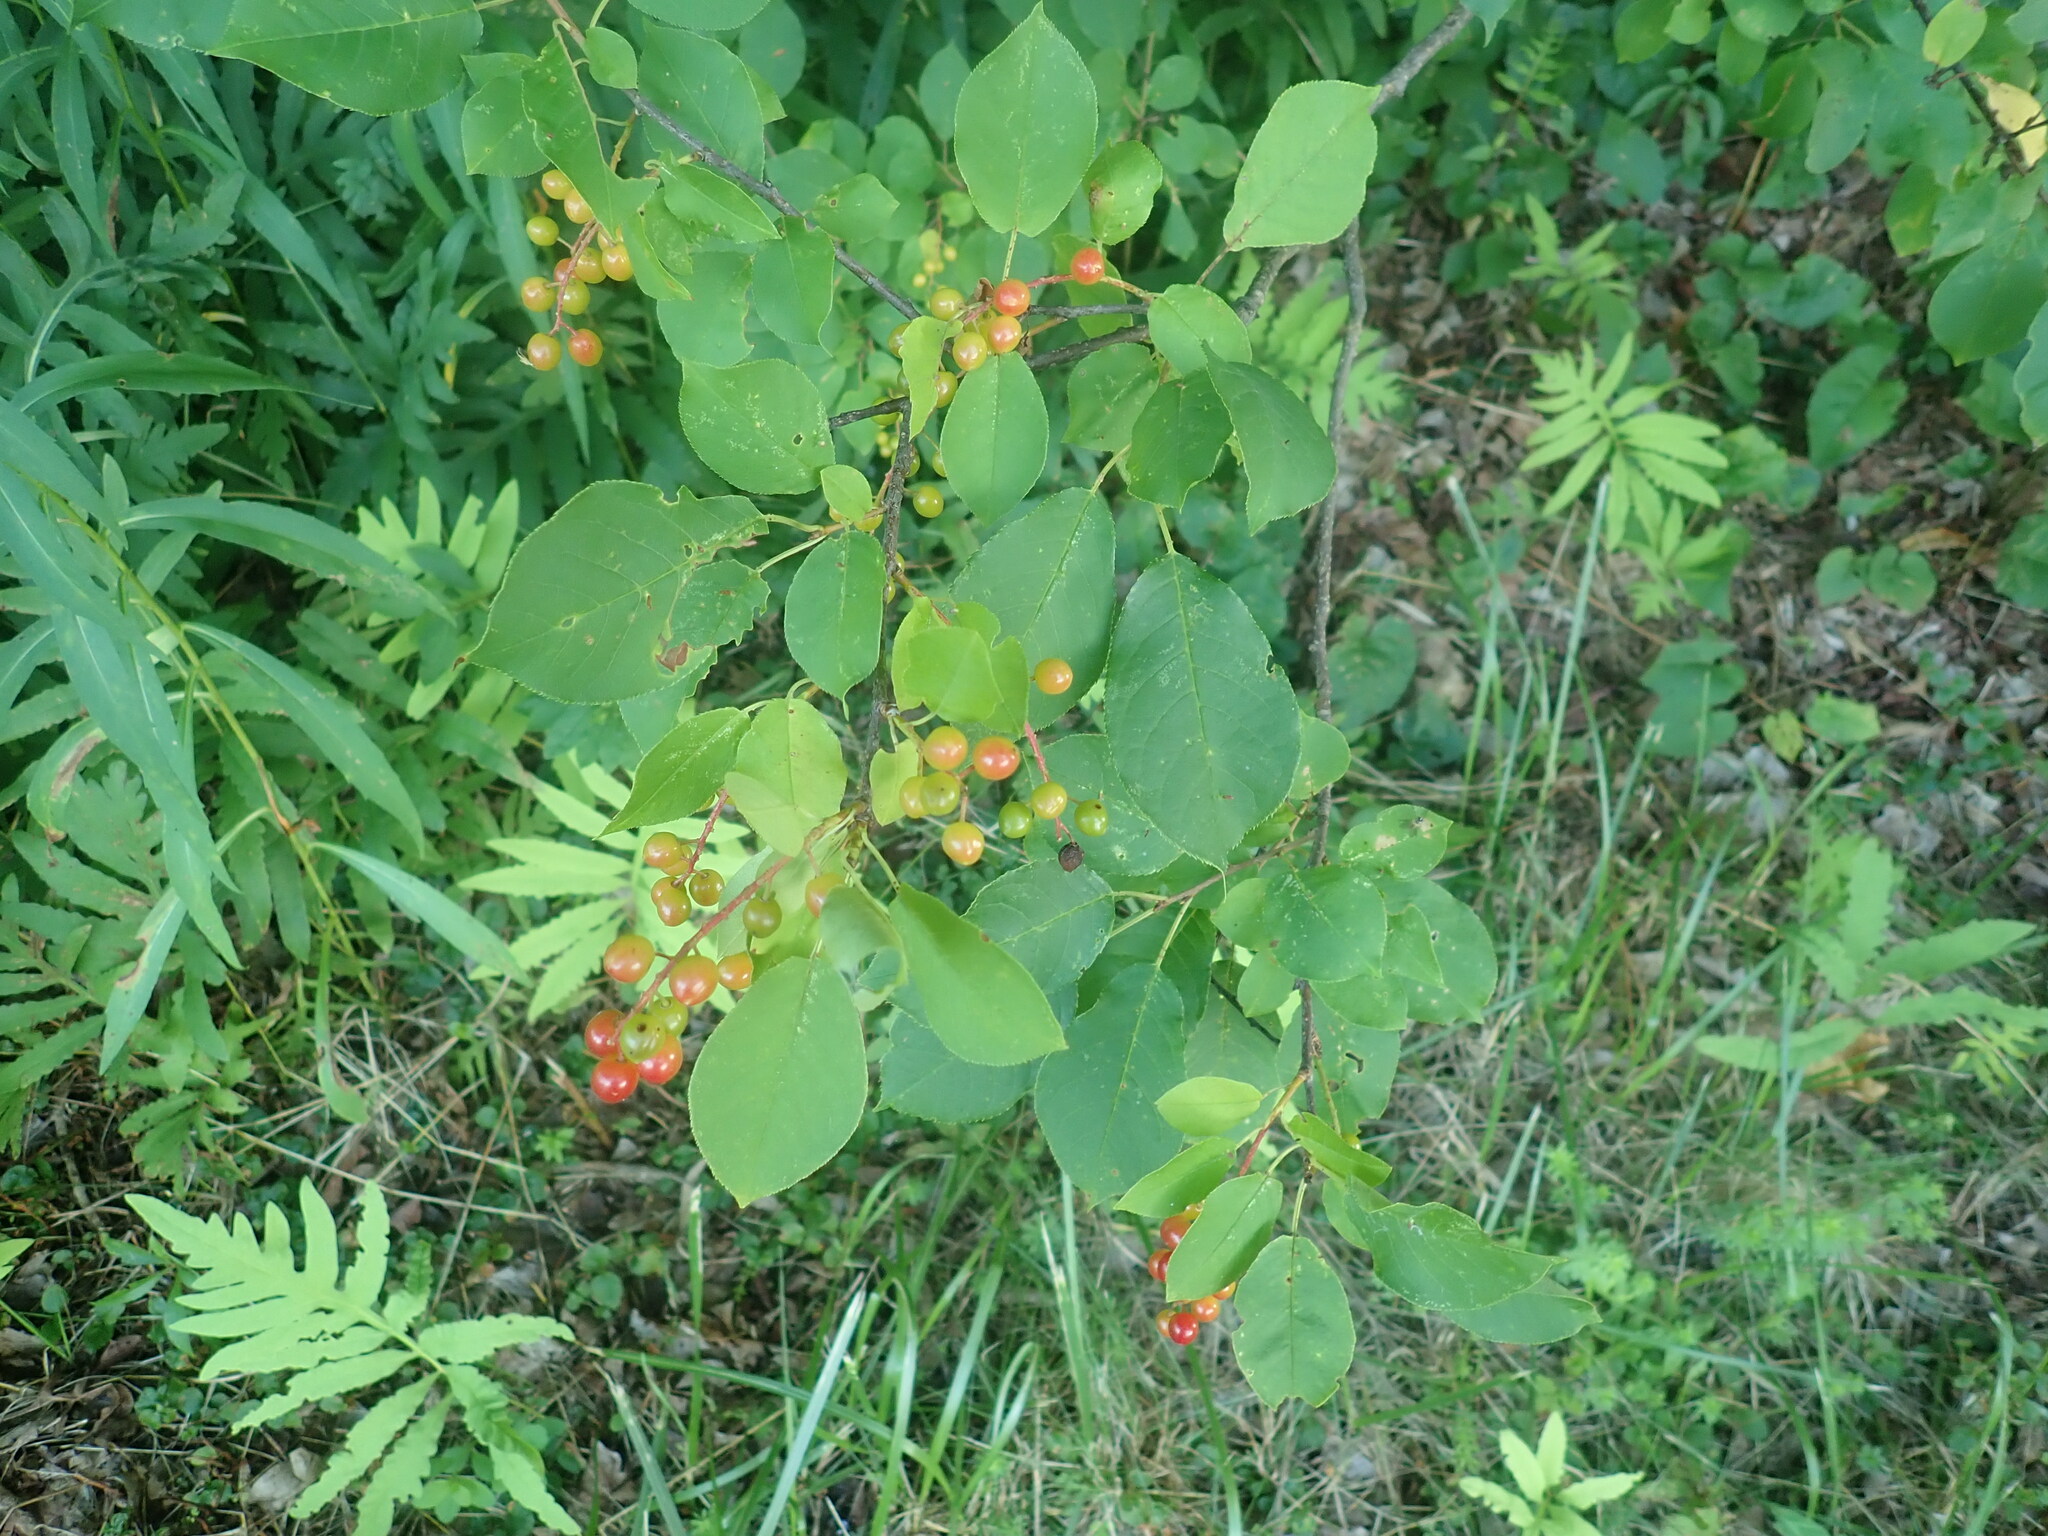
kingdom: Plantae
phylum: Tracheophyta
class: Magnoliopsida
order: Rosales
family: Rosaceae
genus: Prunus
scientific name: Prunus virginiana
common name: Chokecherry
